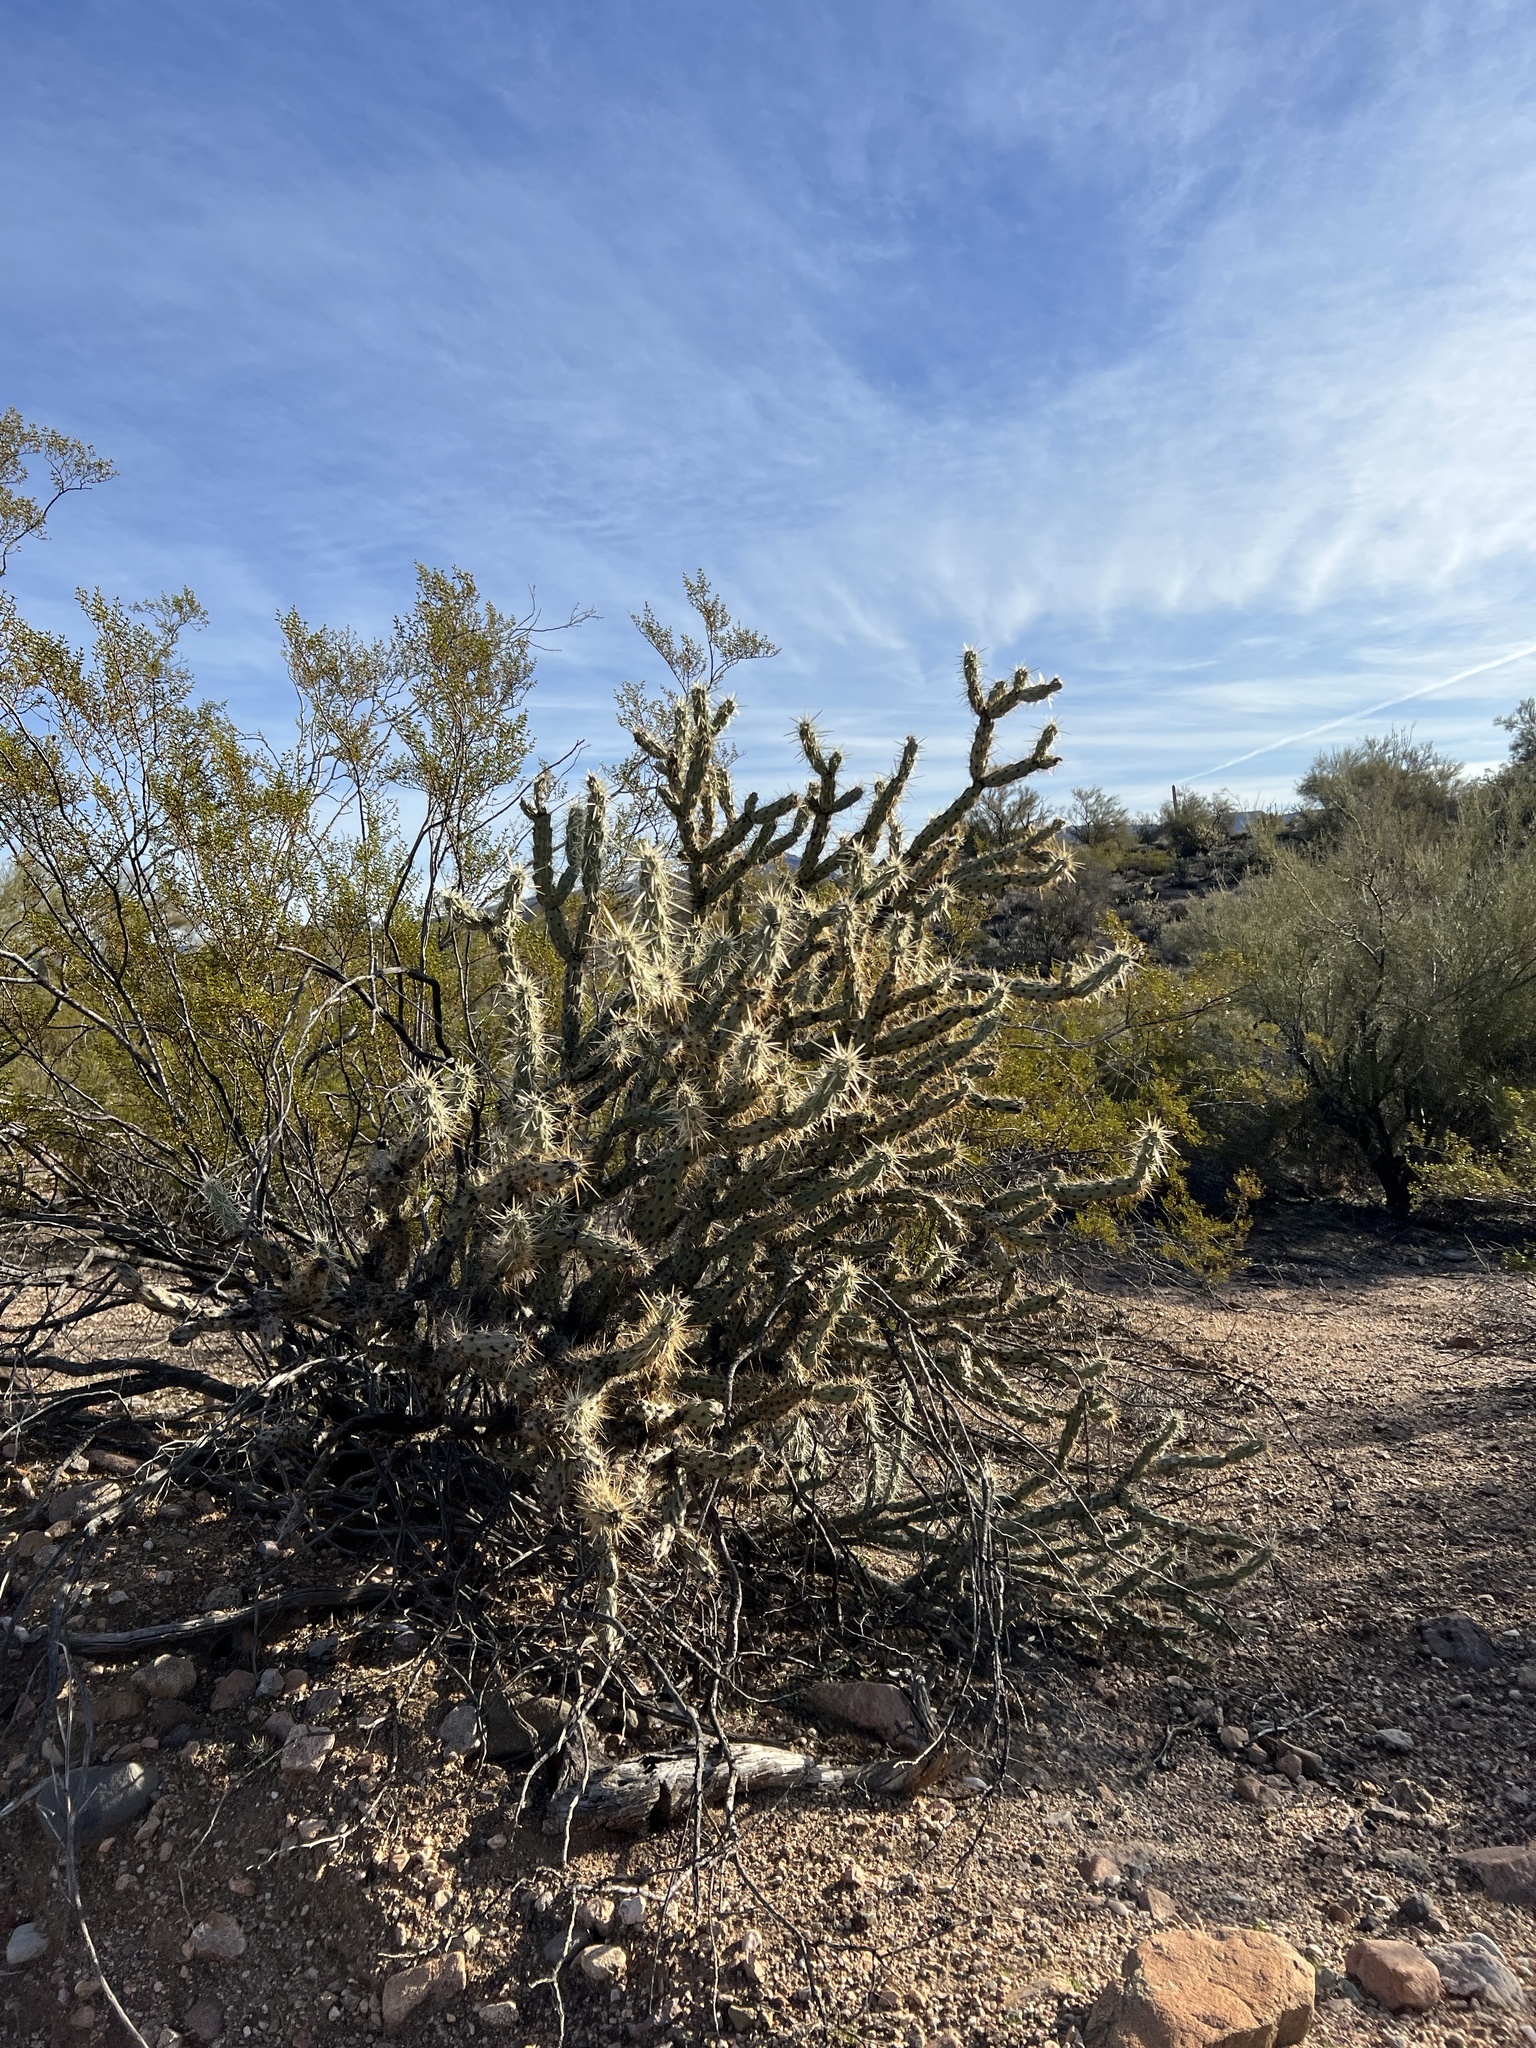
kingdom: Plantae
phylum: Tracheophyta
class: Magnoliopsida
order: Caryophyllales
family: Cactaceae
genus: Cylindropuntia
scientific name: Cylindropuntia acanthocarpa
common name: Buckhorn cholla
